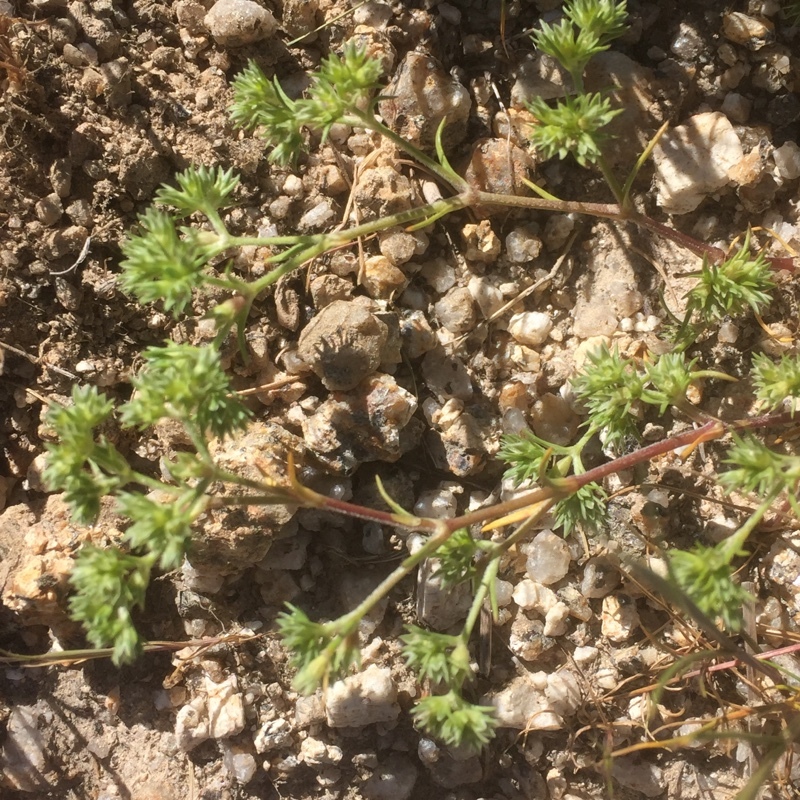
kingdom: Plantae
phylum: Tracheophyta
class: Magnoliopsida
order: Caryophyllales
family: Caryophyllaceae
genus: Scleranthus
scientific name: Scleranthus annuus
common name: Annual knawel
